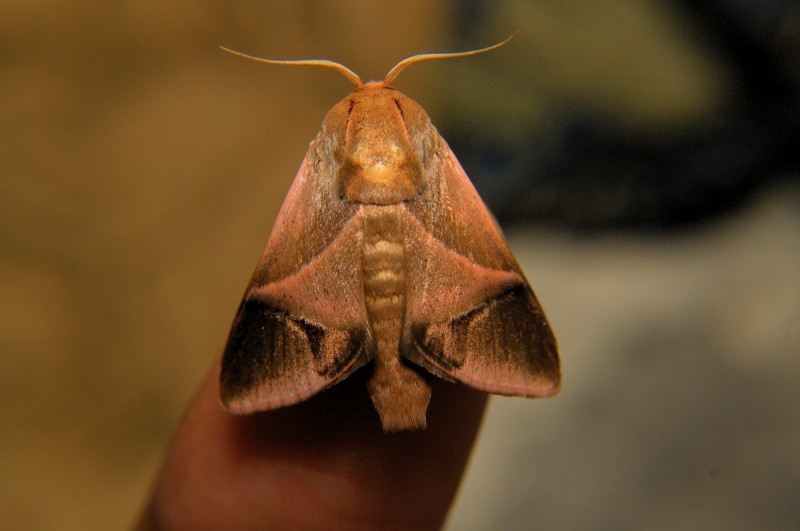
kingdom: Animalia
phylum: Arthropoda
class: Insecta
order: Lepidoptera
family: Limacodidae
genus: Setora
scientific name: Setora postornata
